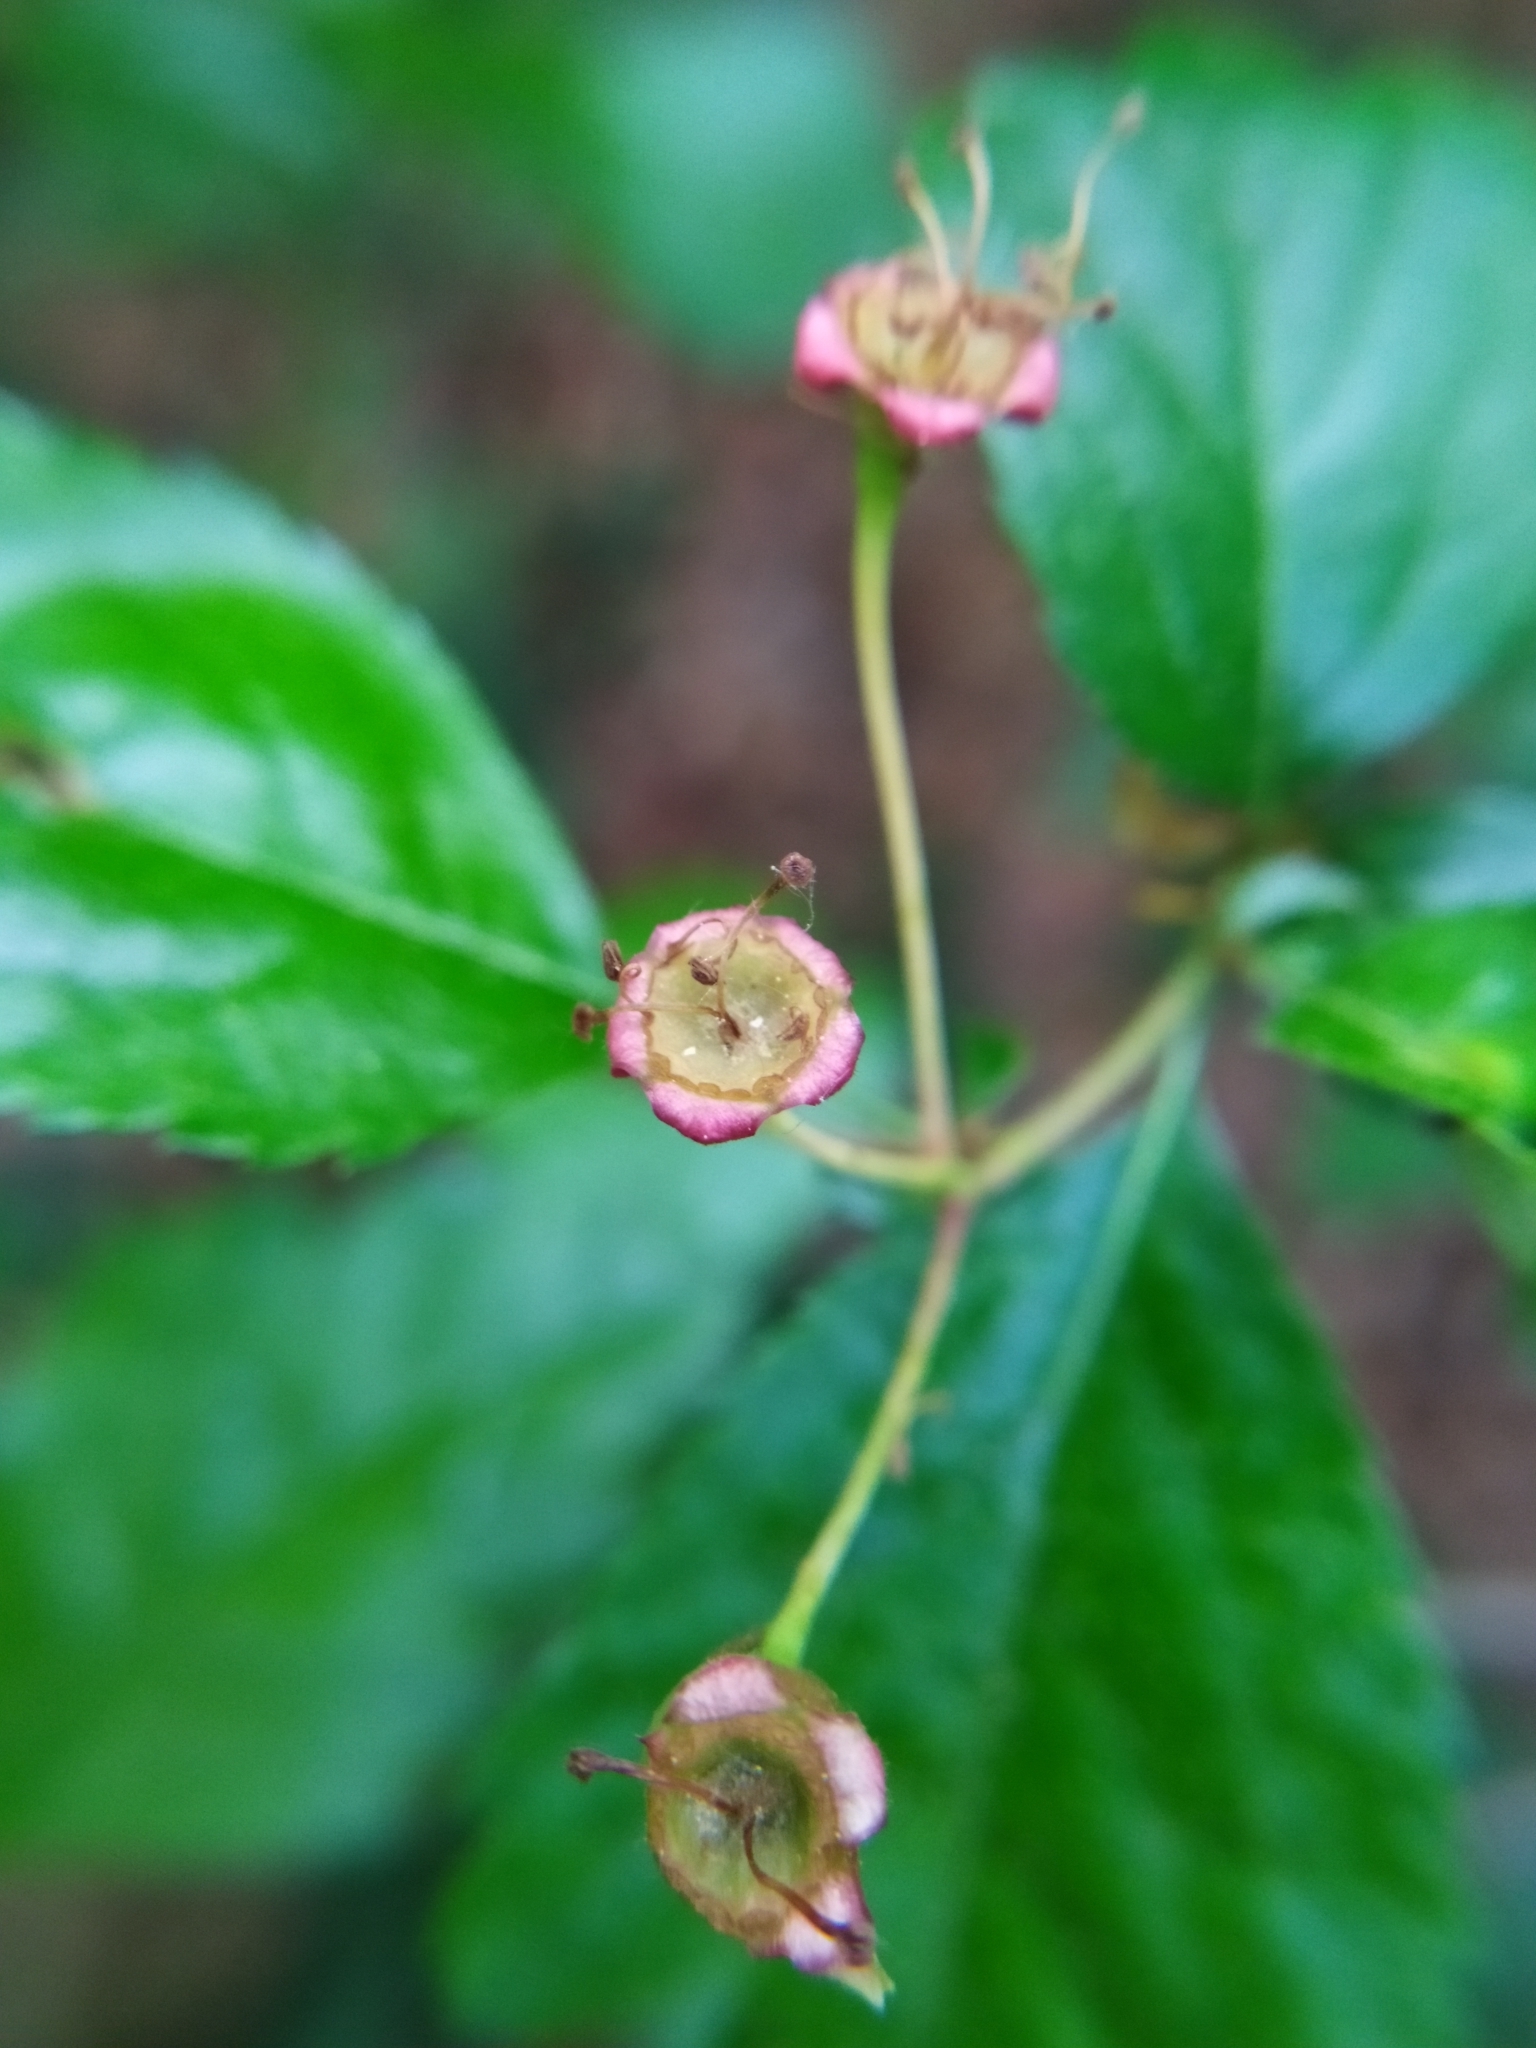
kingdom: Plantae
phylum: Tracheophyta
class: Magnoliopsida
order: Rosales
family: Rosaceae
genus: Crataegus
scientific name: Crataegus laevigata
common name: Midland hawthorn
